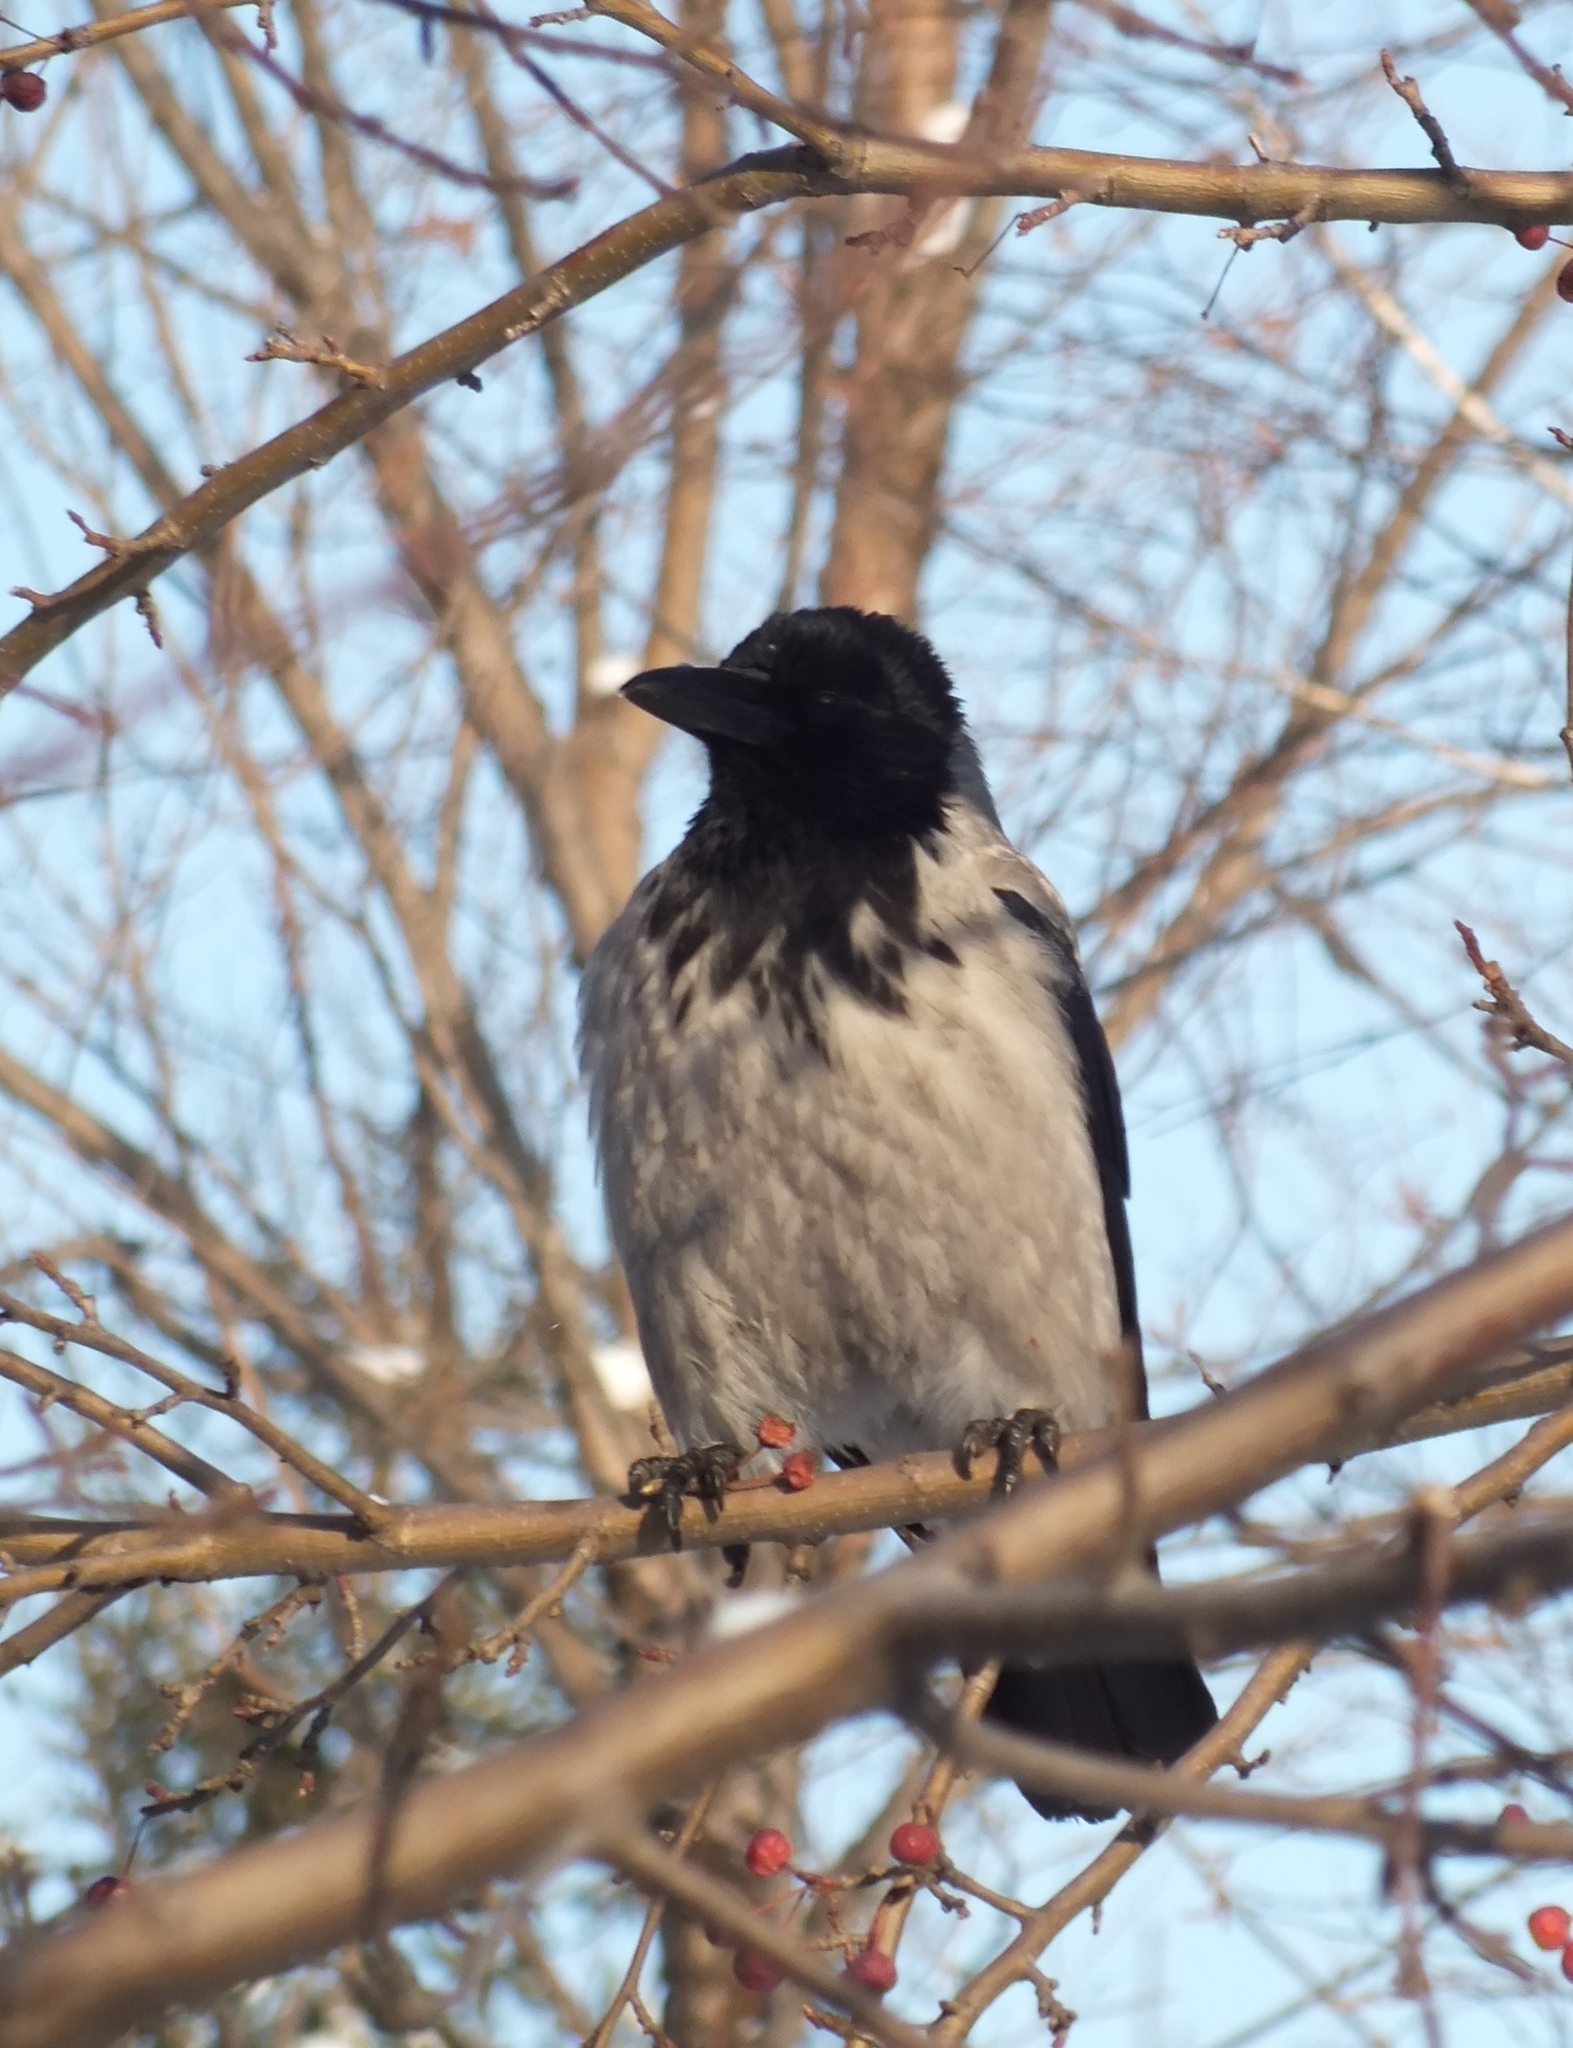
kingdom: Animalia
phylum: Chordata
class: Aves
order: Passeriformes
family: Corvidae
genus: Corvus
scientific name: Corvus cornix
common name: Hooded crow
